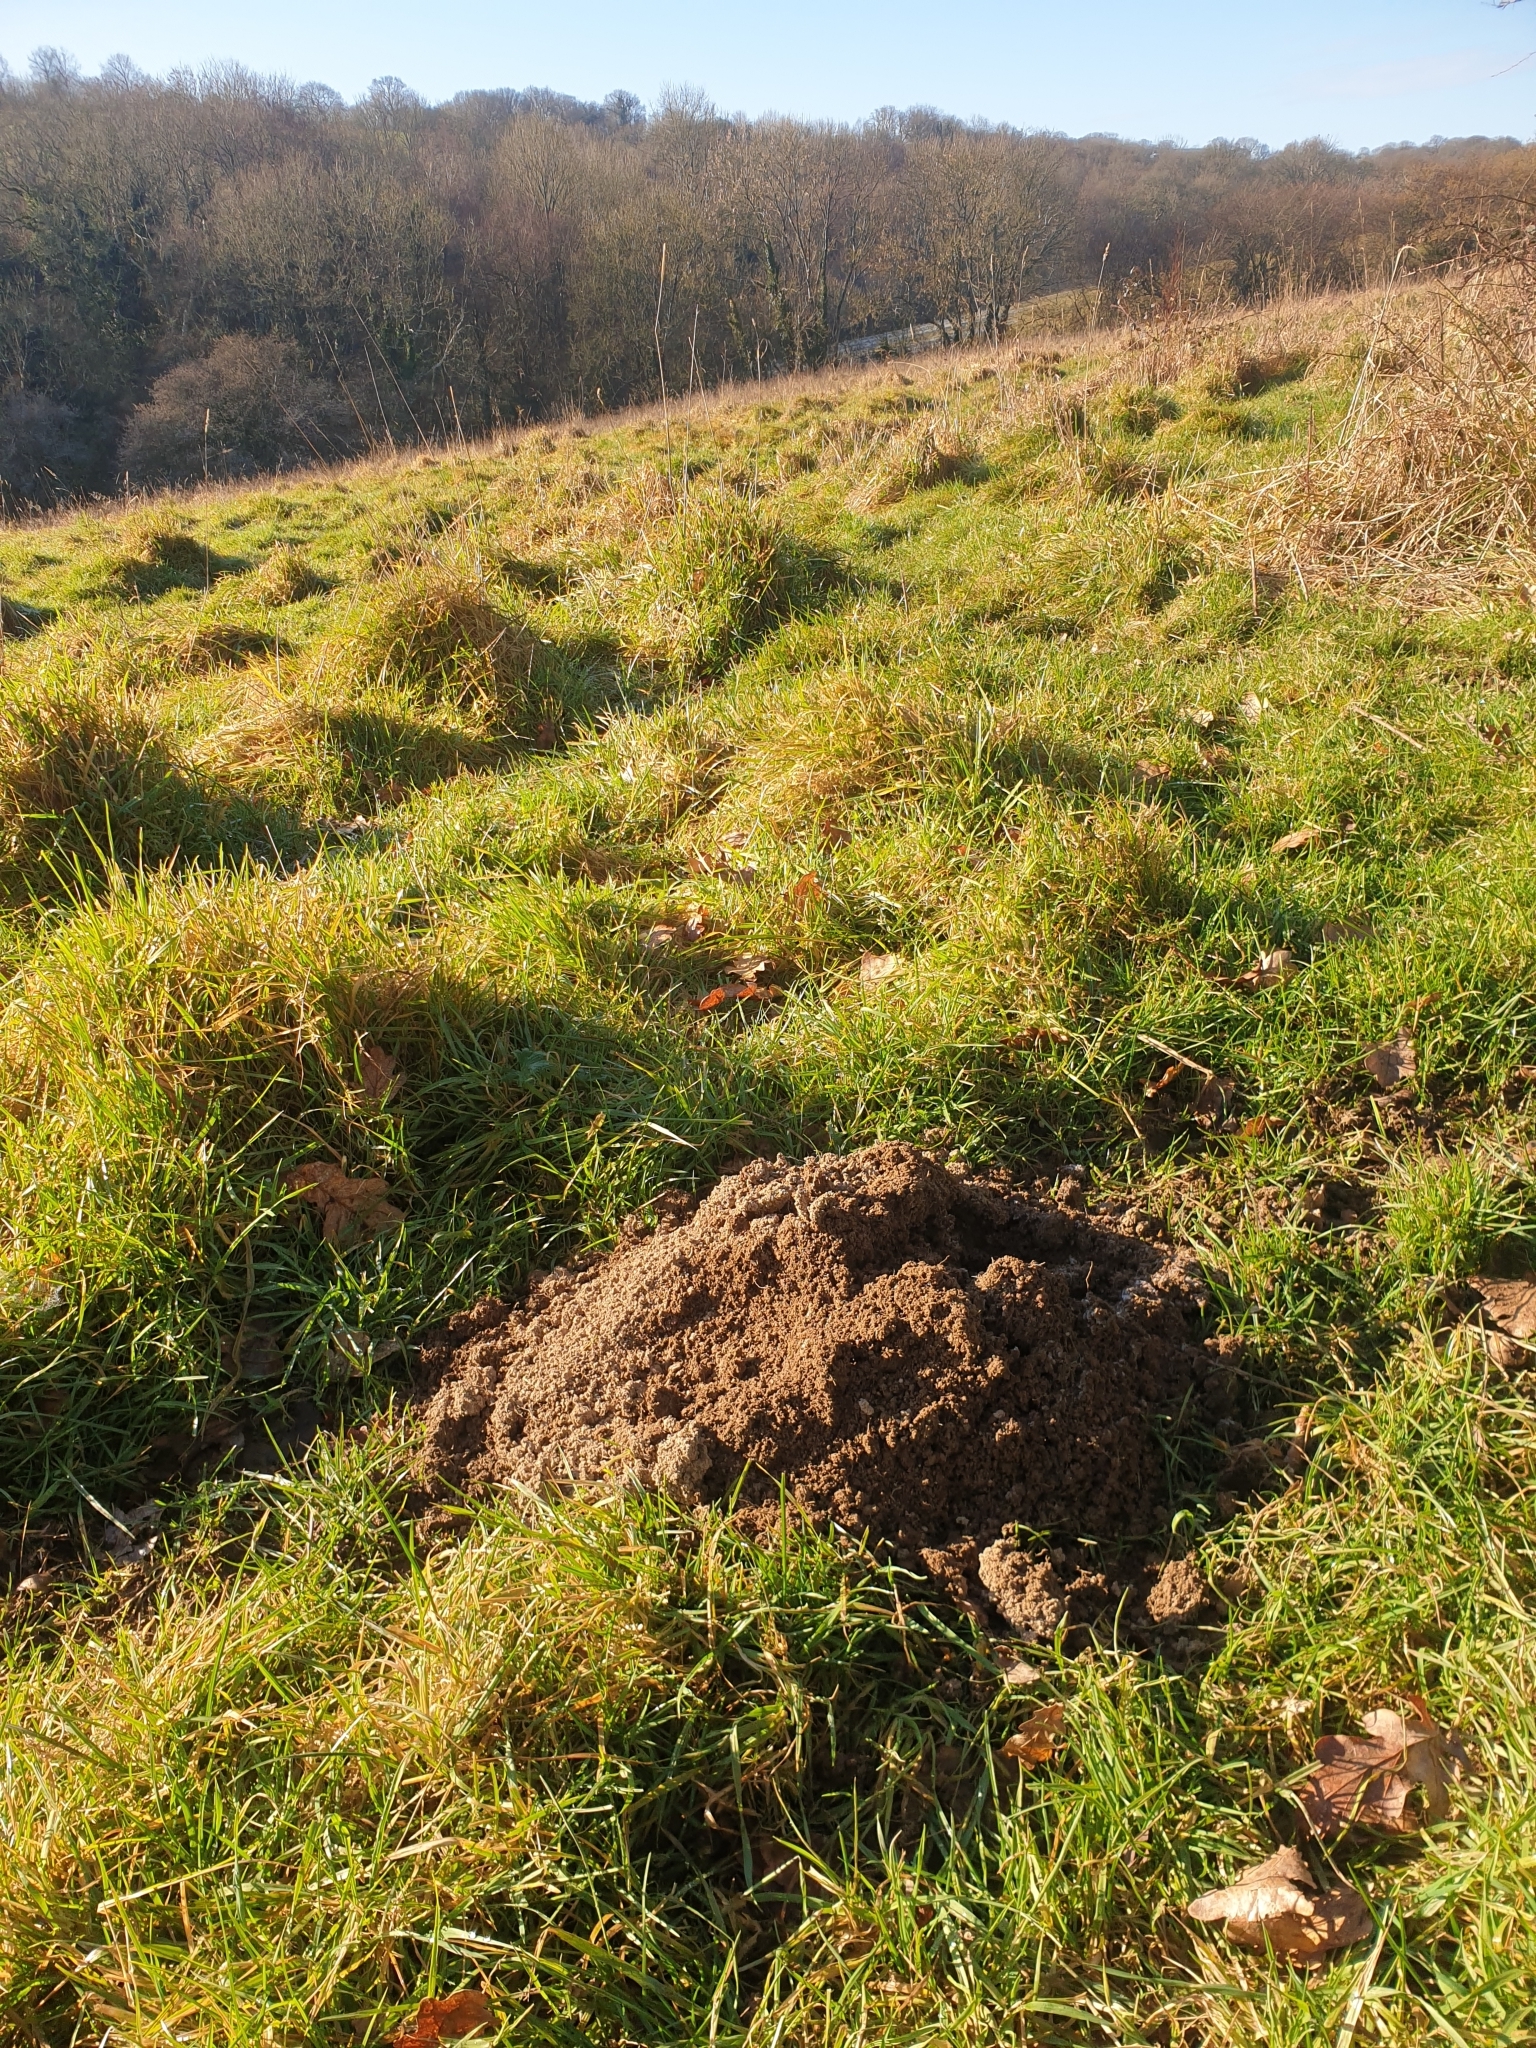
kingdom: Animalia
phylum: Chordata
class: Mammalia
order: Soricomorpha
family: Talpidae
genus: Talpa
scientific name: Talpa europaea
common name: European mole
